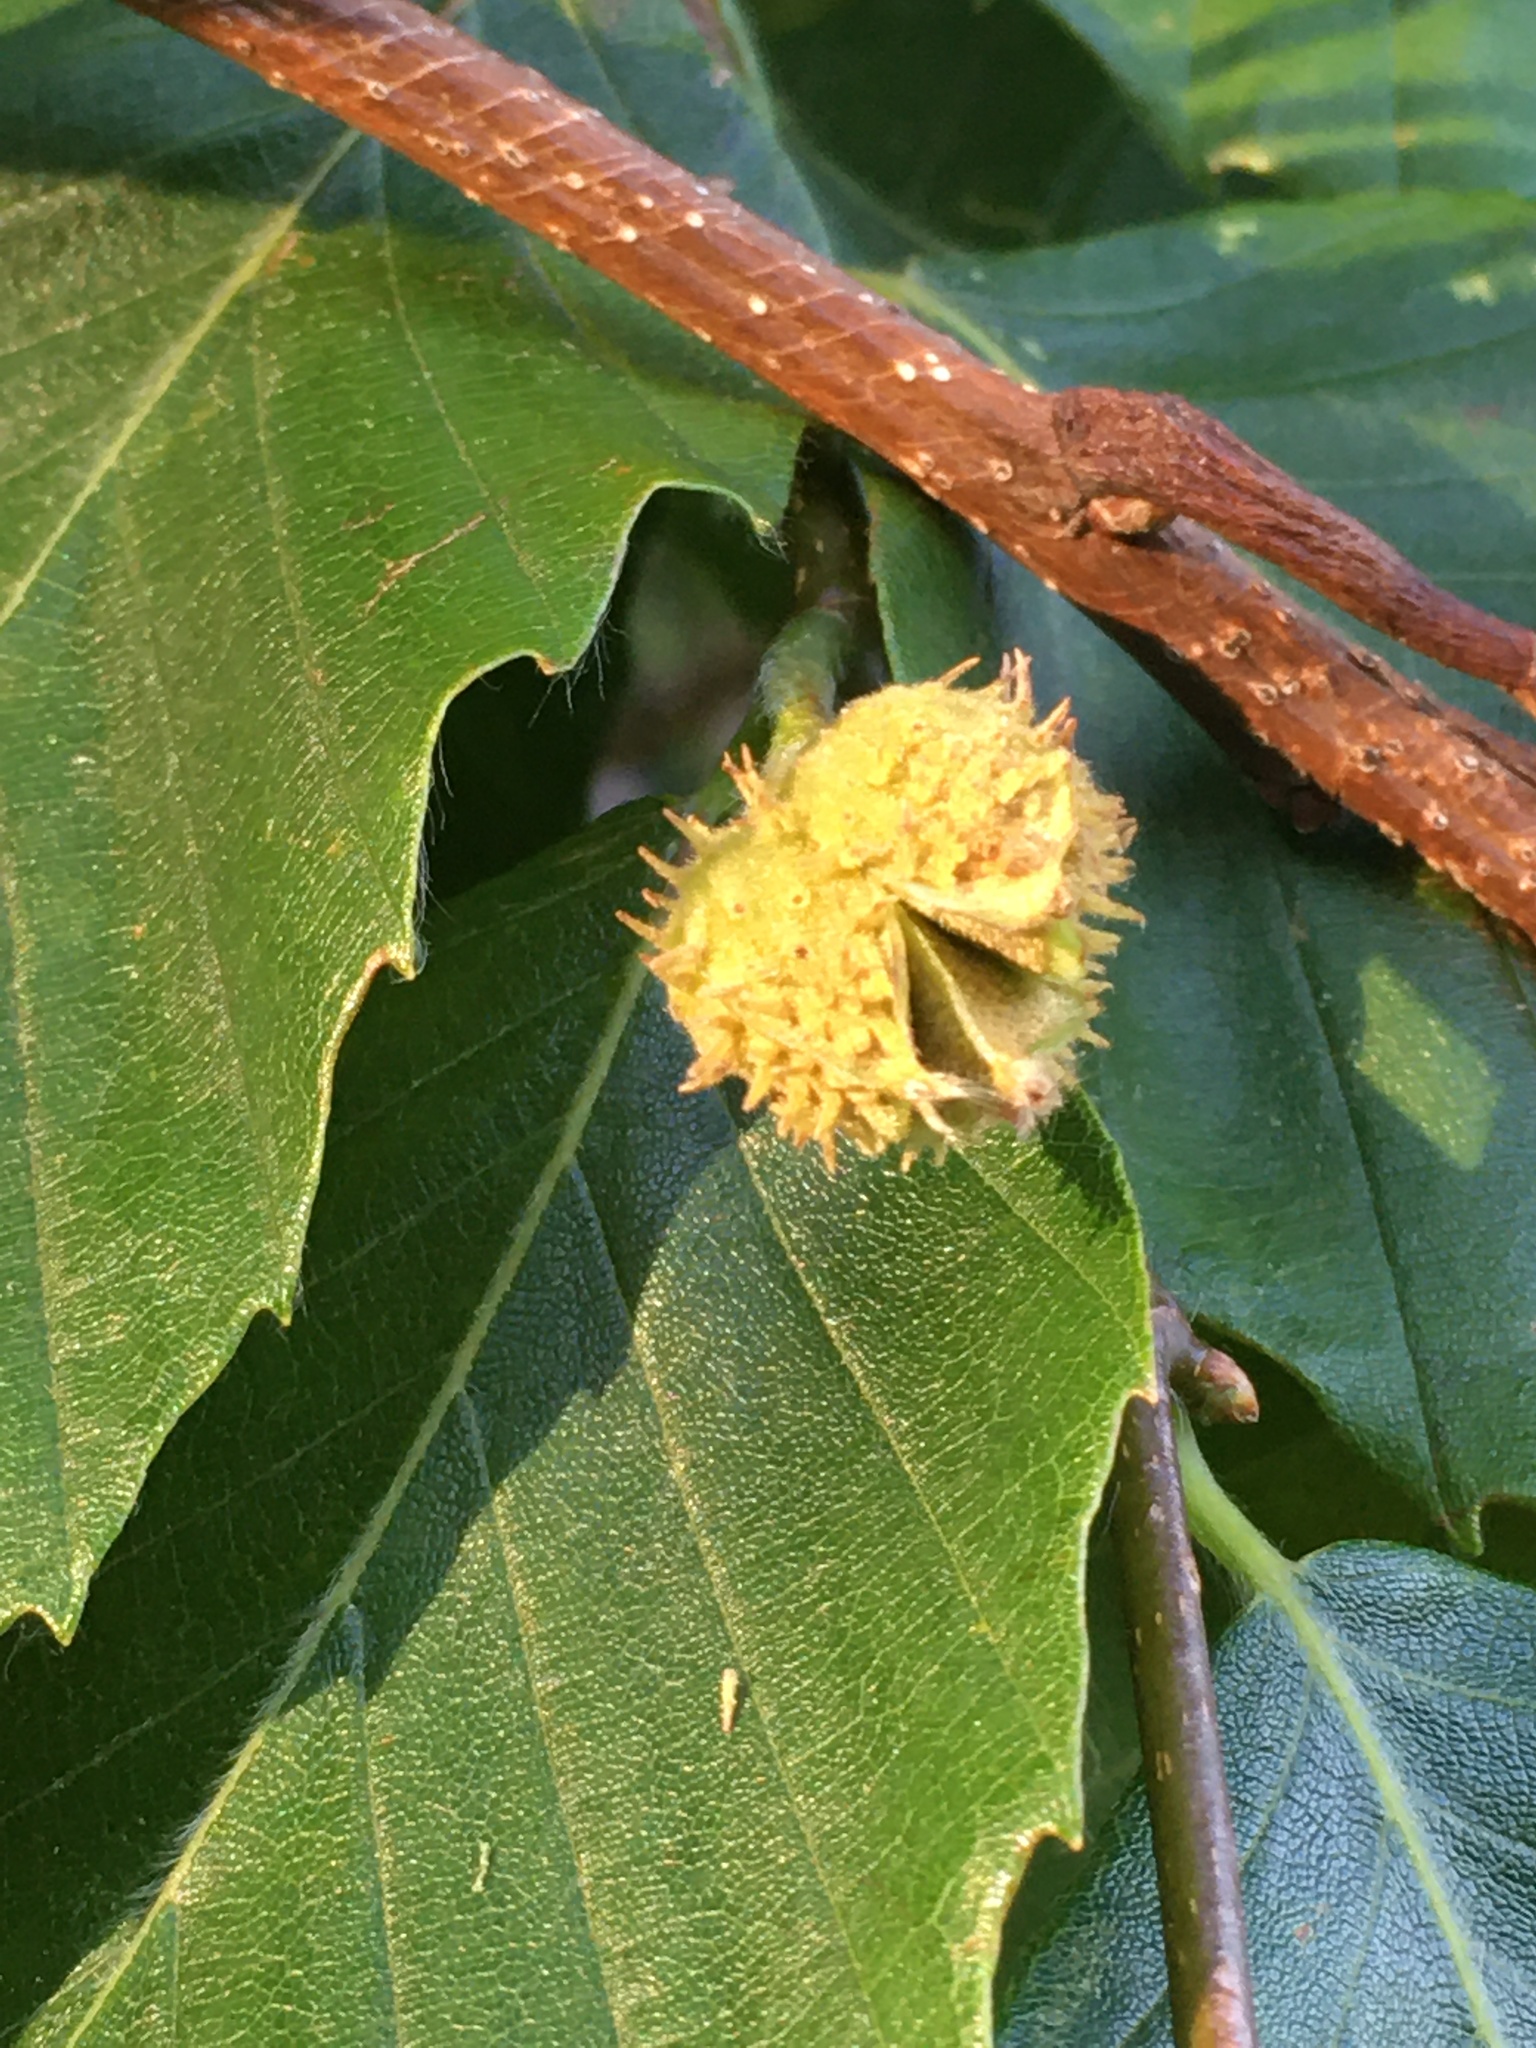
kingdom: Plantae
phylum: Tracheophyta
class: Magnoliopsida
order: Fagales
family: Fagaceae
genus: Fagus
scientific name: Fagus grandifolia
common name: American beech
